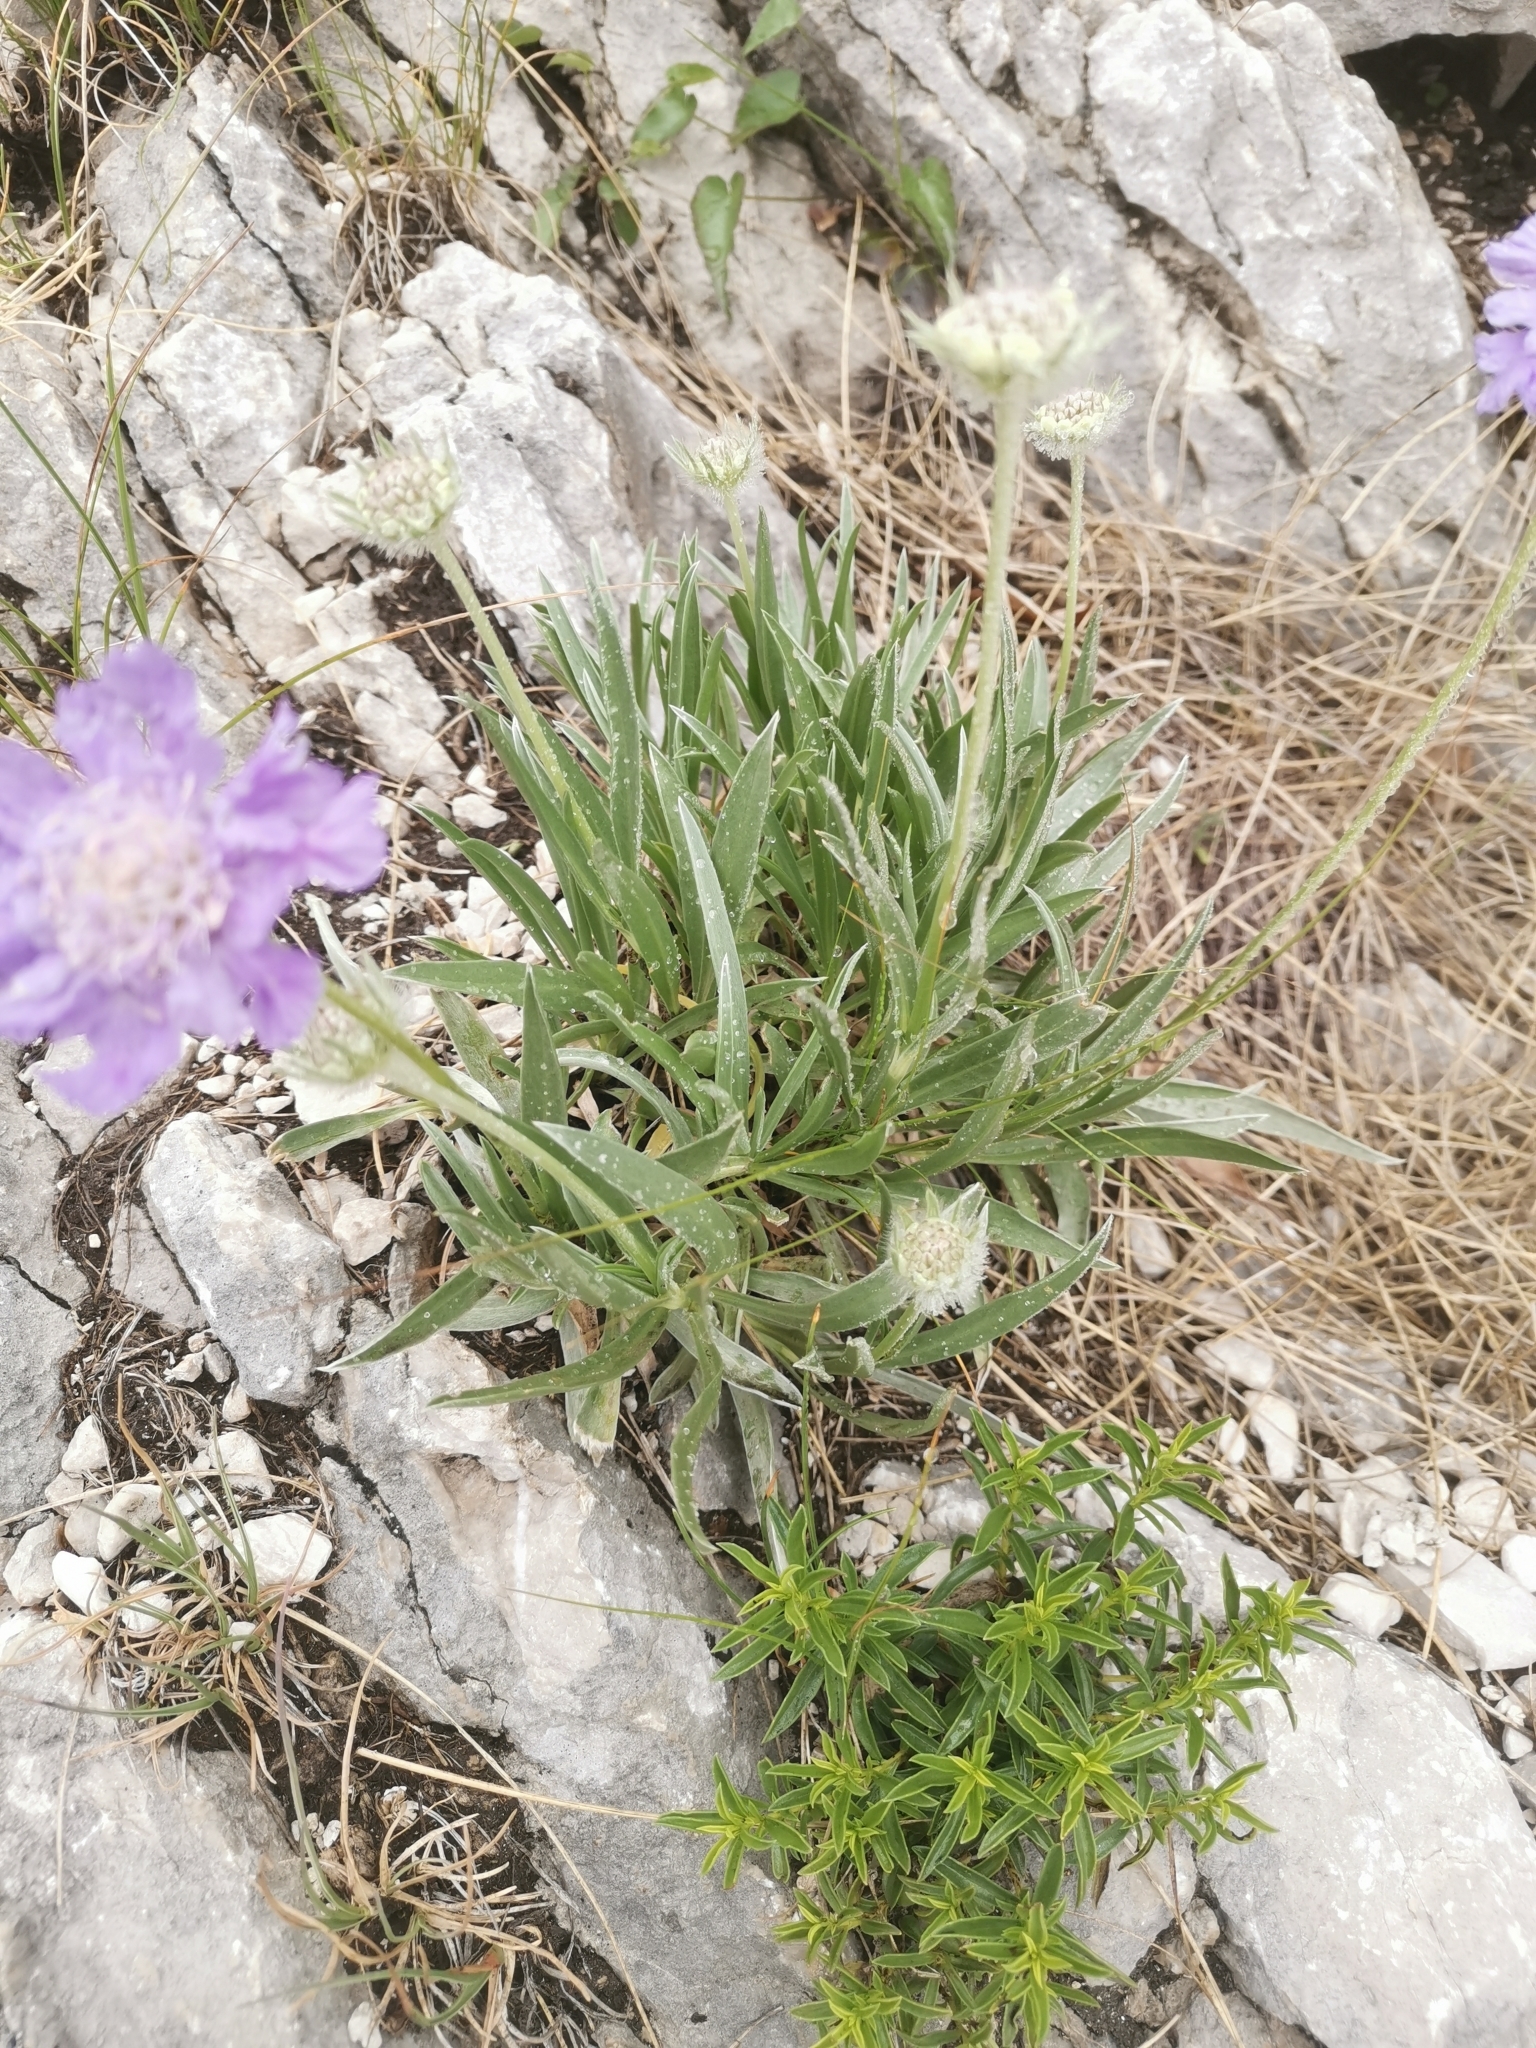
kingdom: Plantae
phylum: Tracheophyta
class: Magnoliopsida
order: Dipsacales
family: Caprifoliaceae
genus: Lomelosia
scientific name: Lomelosia graminifolia
